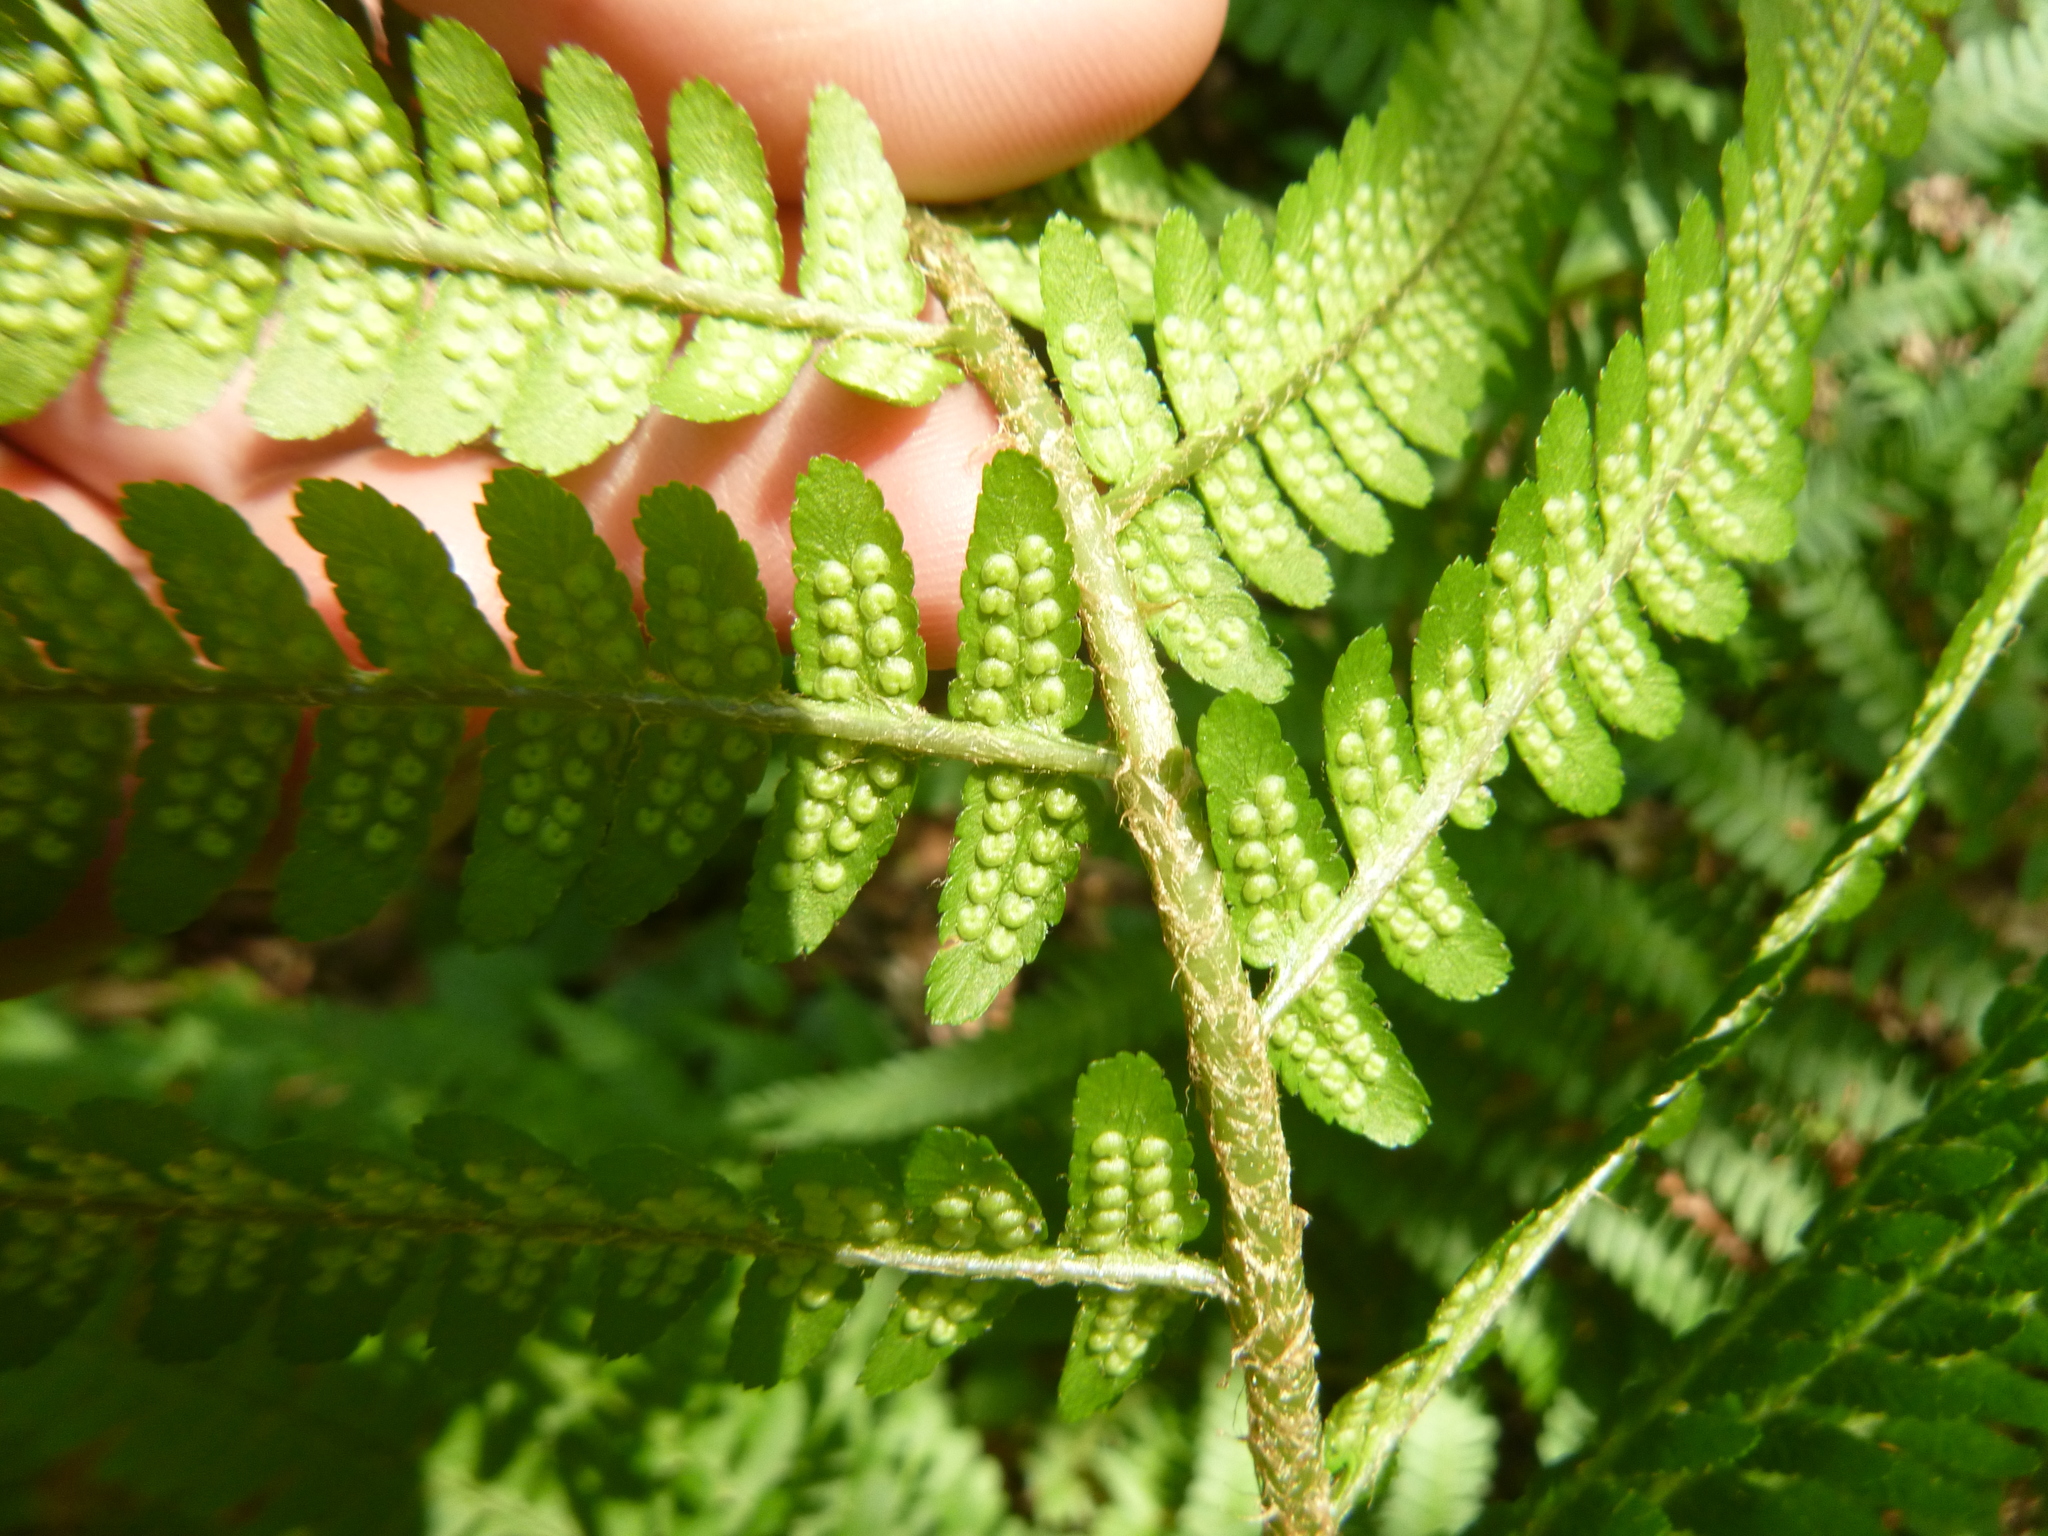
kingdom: Plantae
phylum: Tracheophyta
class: Polypodiopsida
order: Polypodiales
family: Dryopteridaceae
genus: Dryopteris
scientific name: Dryopteris filix-mas
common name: Male fern
